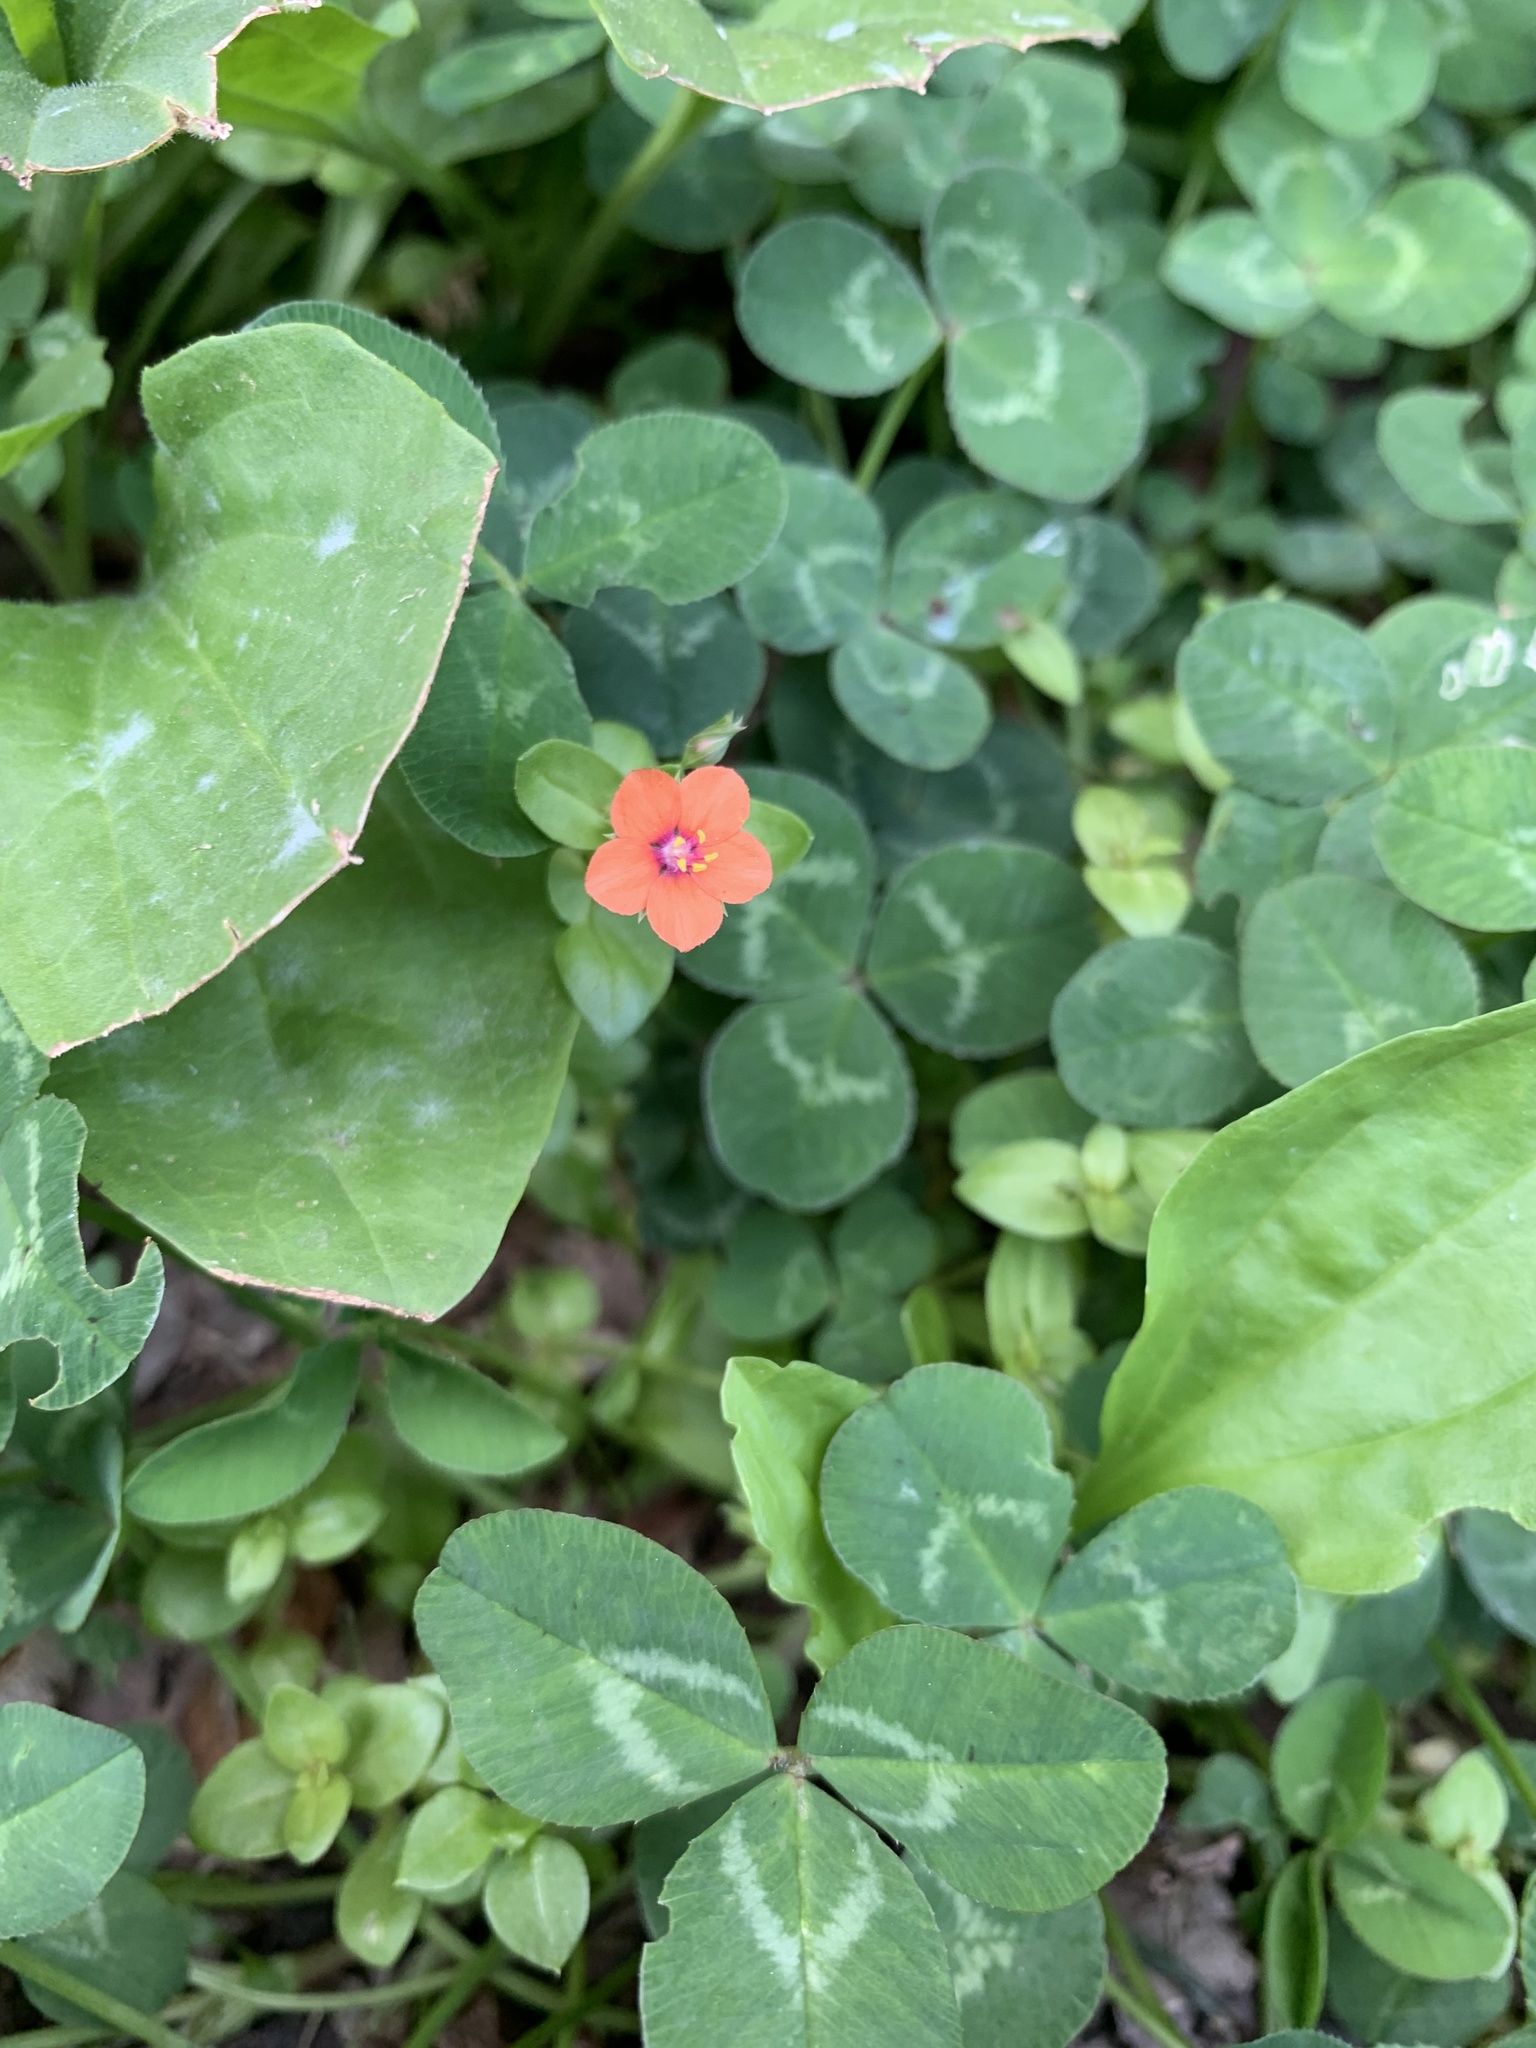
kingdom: Plantae
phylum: Tracheophyta
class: Magnoliopsida
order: Ericales
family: Primulaceae
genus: Lysimachia
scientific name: Lysimachia arvensis
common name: Scarlet pimpernel
